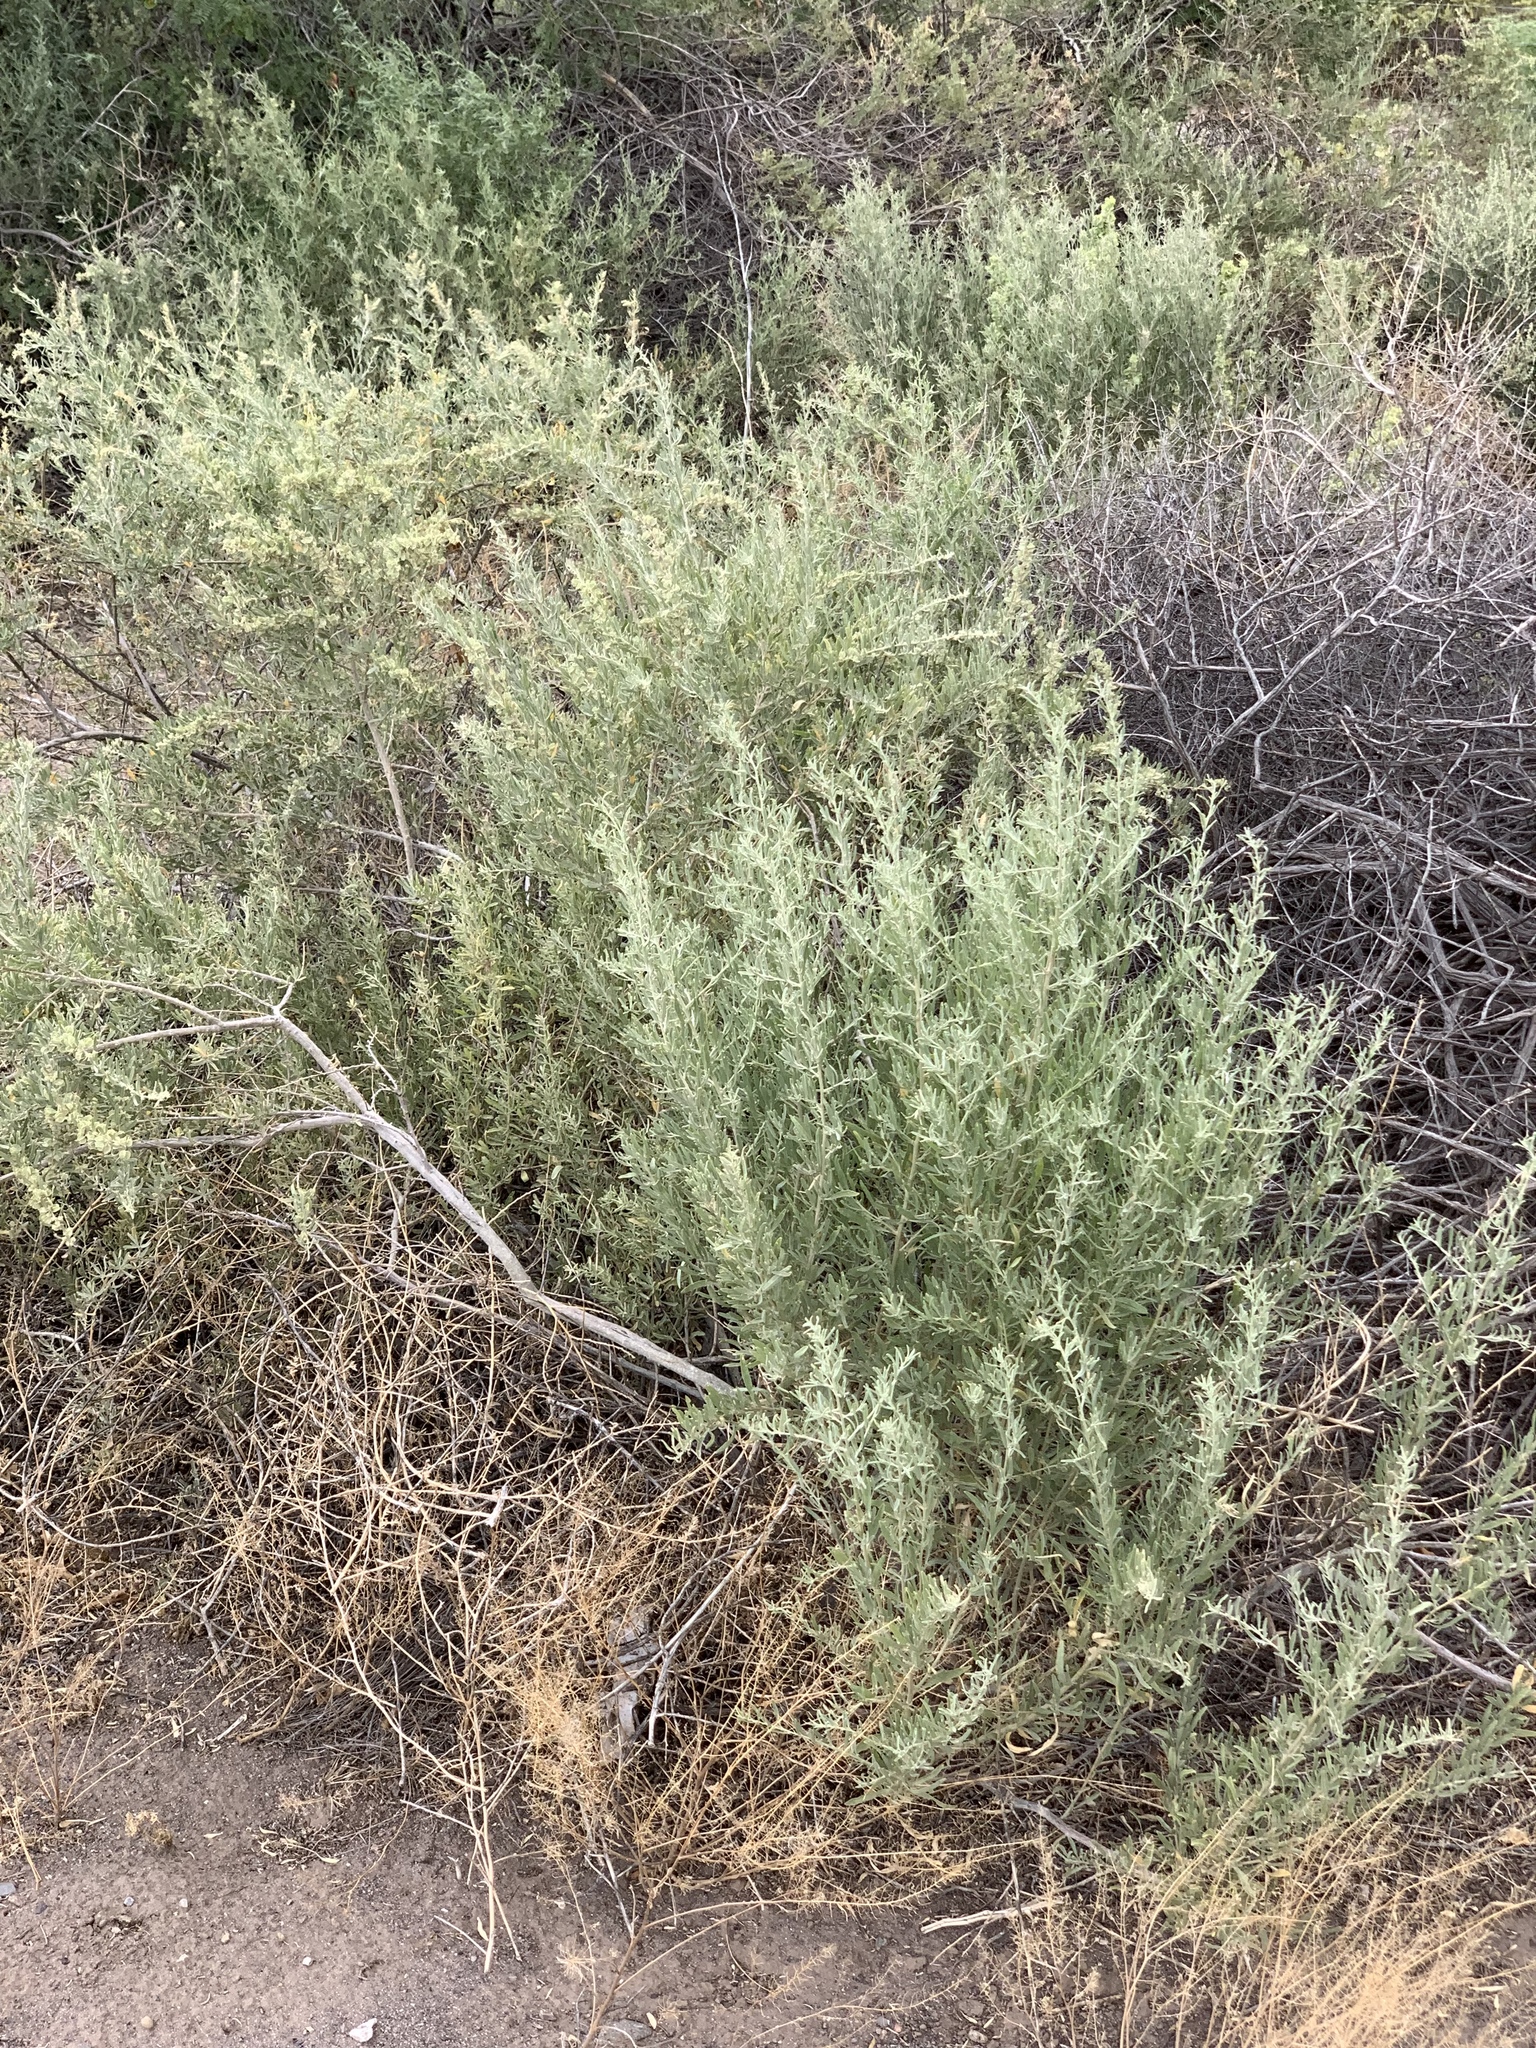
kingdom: Plantae
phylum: Tracheophyta
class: Magnoliopsida
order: Caryophyllales
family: Amaranthaceae
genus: Atriplex
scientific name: Atriplex canescens
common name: Four-wing saltbush
